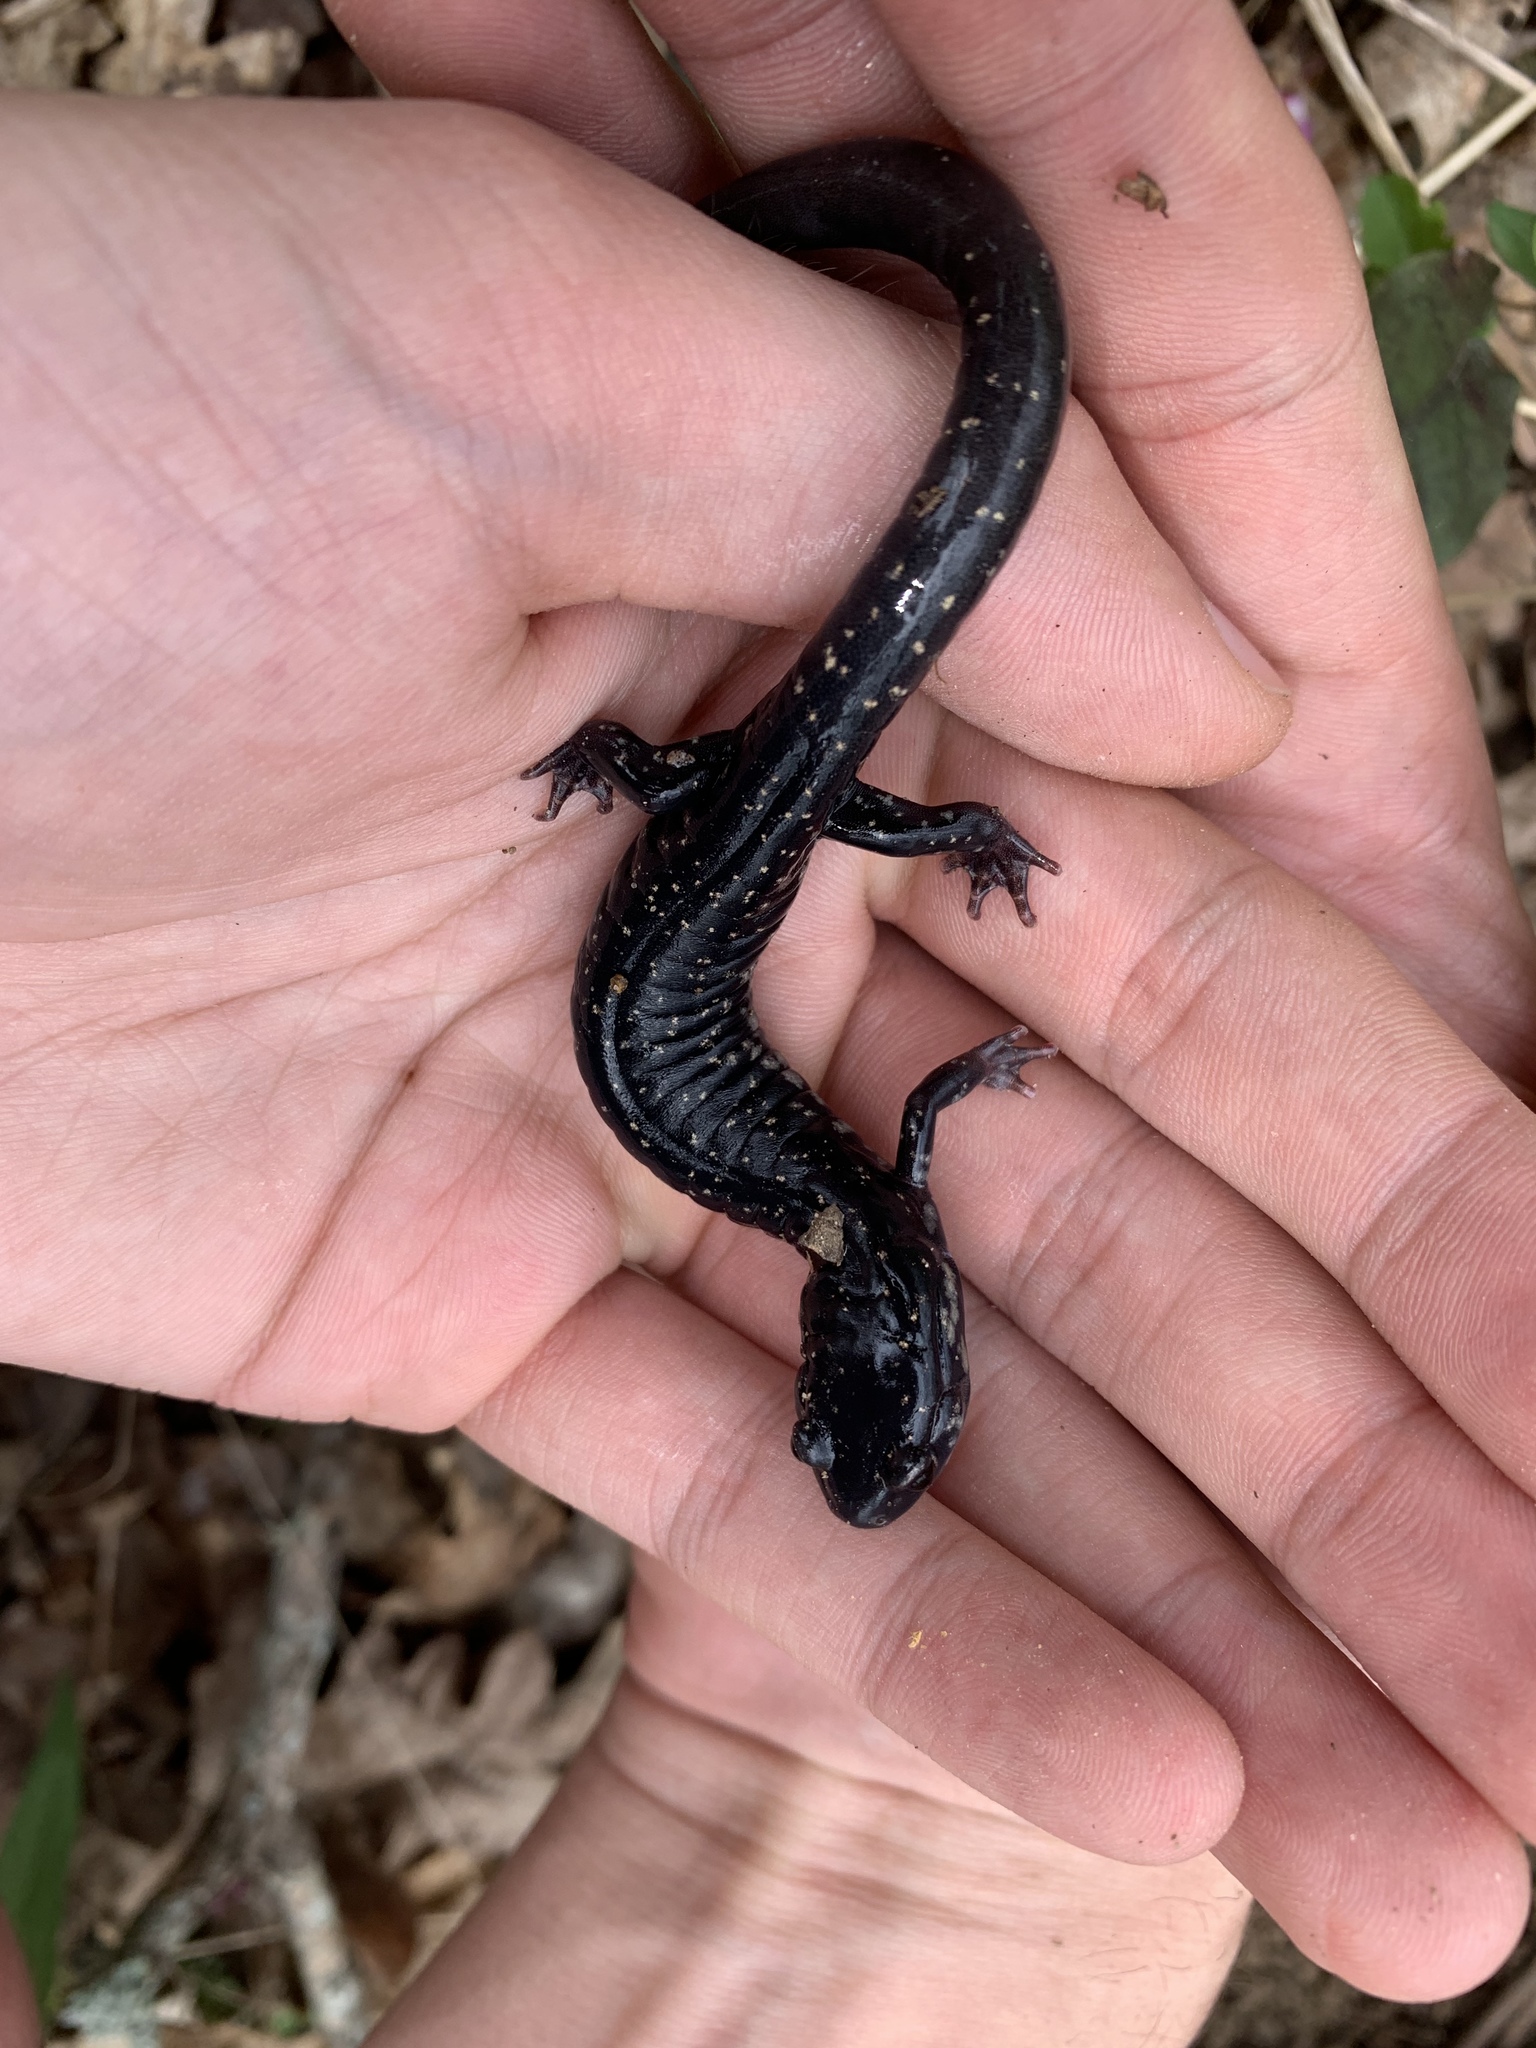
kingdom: Animalia
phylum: Chordata
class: Amphibia
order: Caudata
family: Plethodontidae
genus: Plethodon
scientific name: Plethodon glutinosus
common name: Northern slimy salamander
